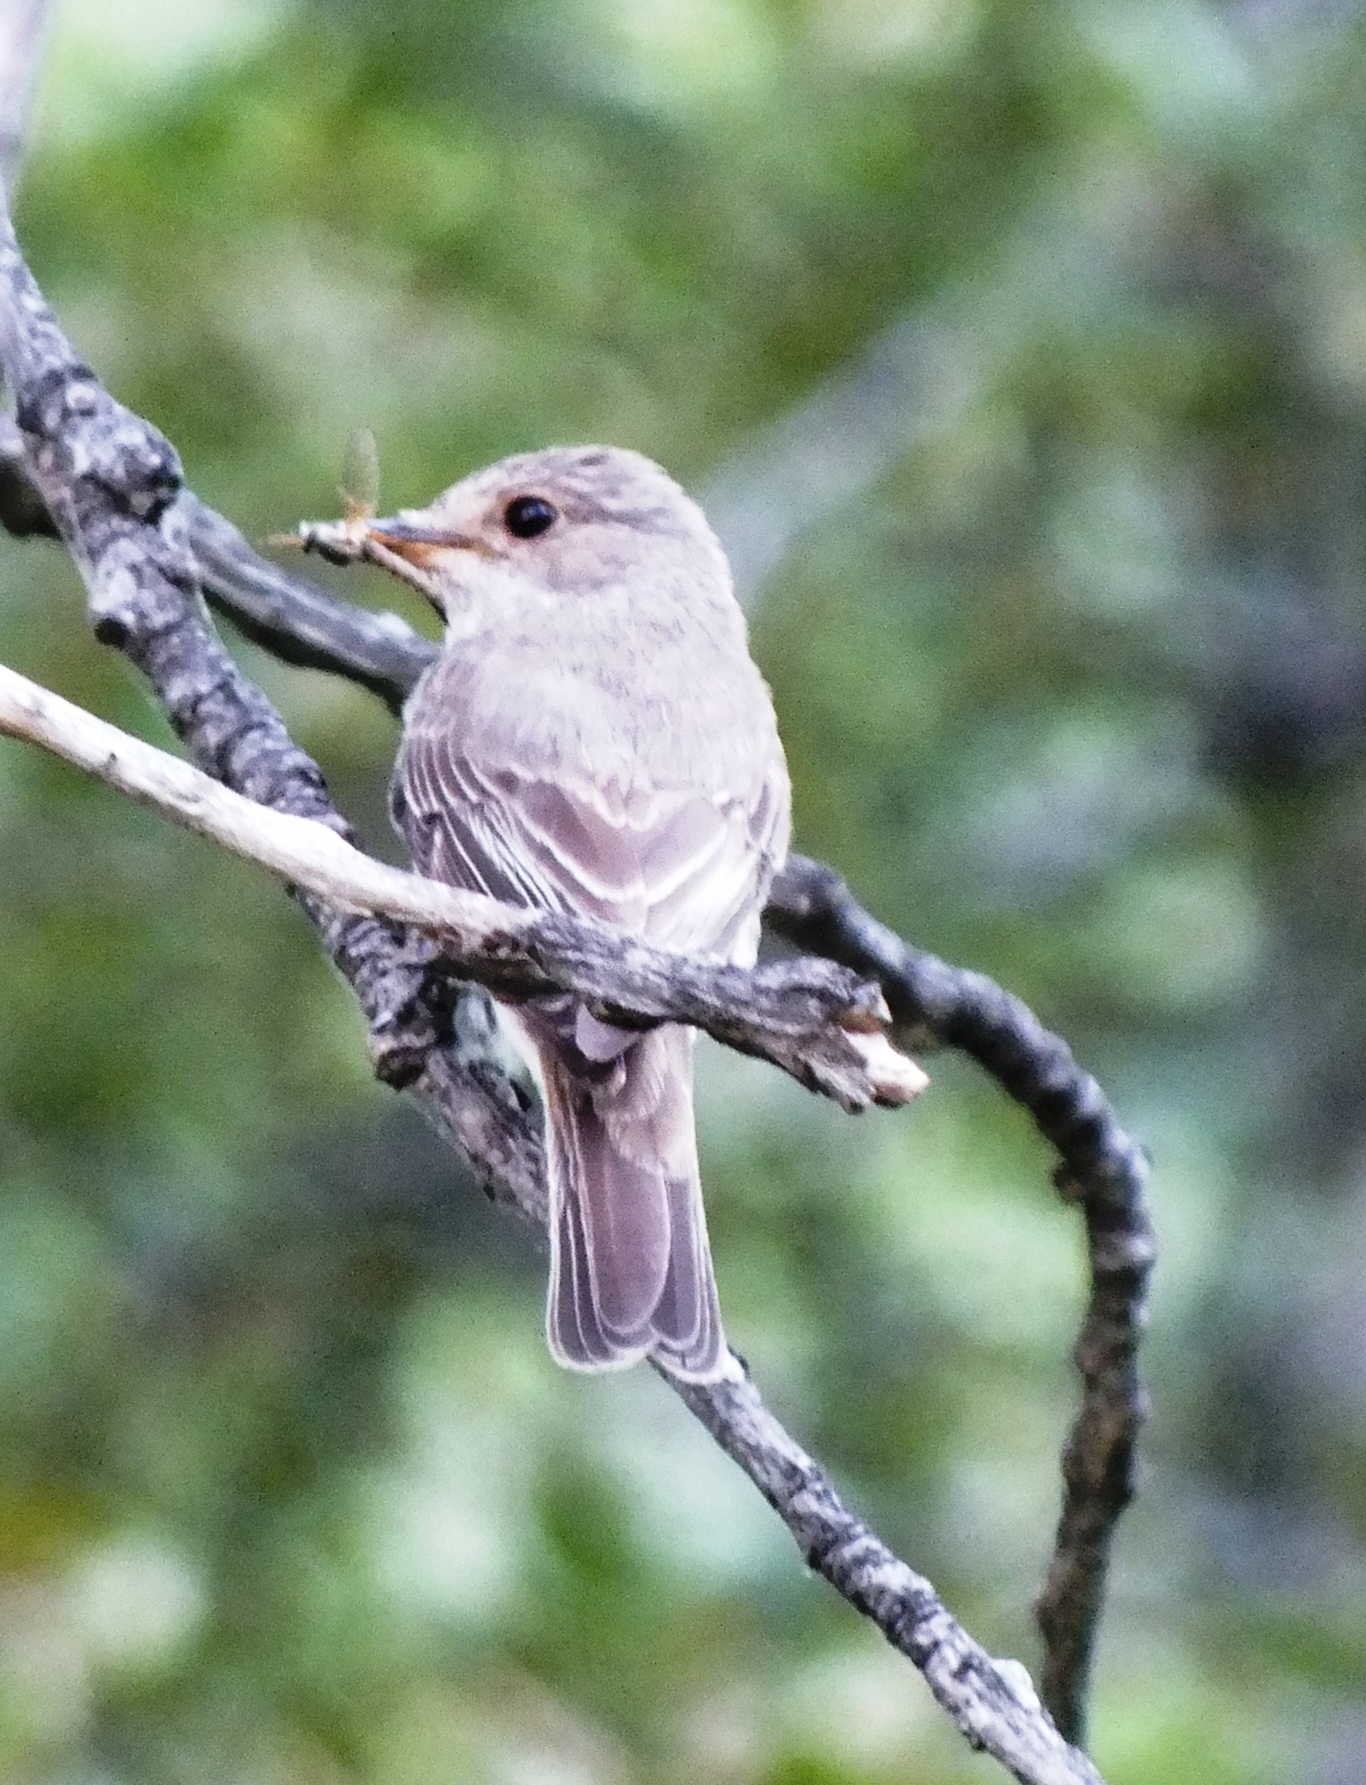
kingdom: Animalia
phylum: Chordata
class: Aves
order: Passeriformes
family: Muscicapidae
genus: Muscicapa
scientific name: Muscicapa striata
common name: Spotted flycatcher
